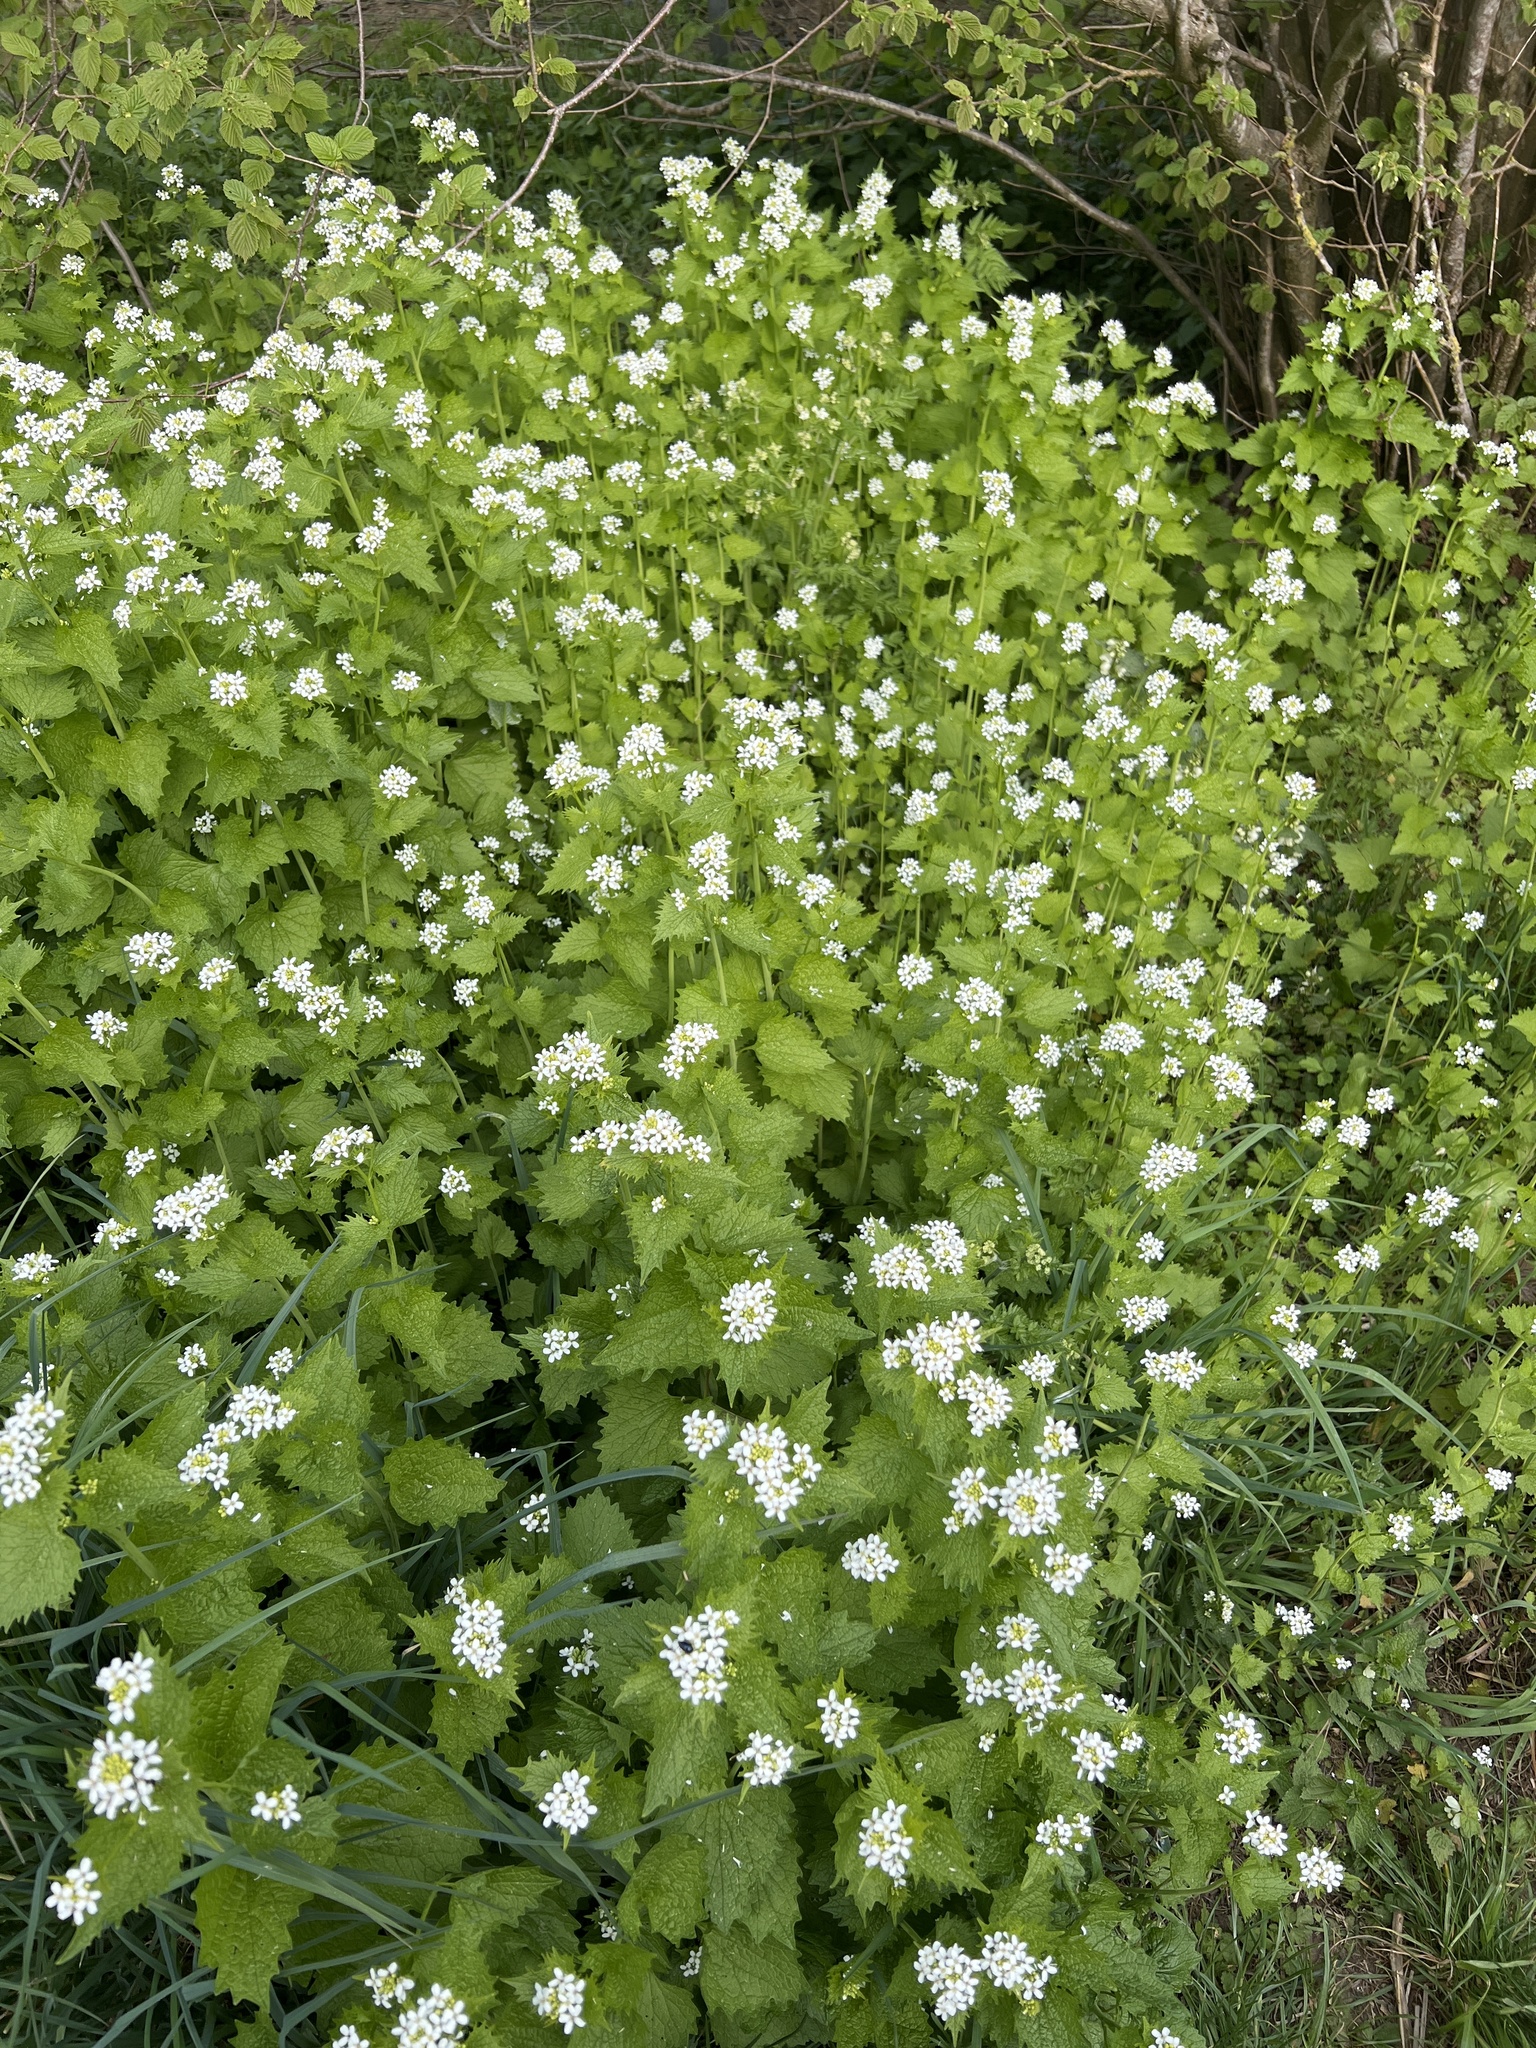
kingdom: Plantae
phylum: Tracheophyta
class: Magnoliopsida
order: Brassicales
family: Brassicaceae
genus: Alliaria
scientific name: Alliaria petiolata
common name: Garlic mustard
